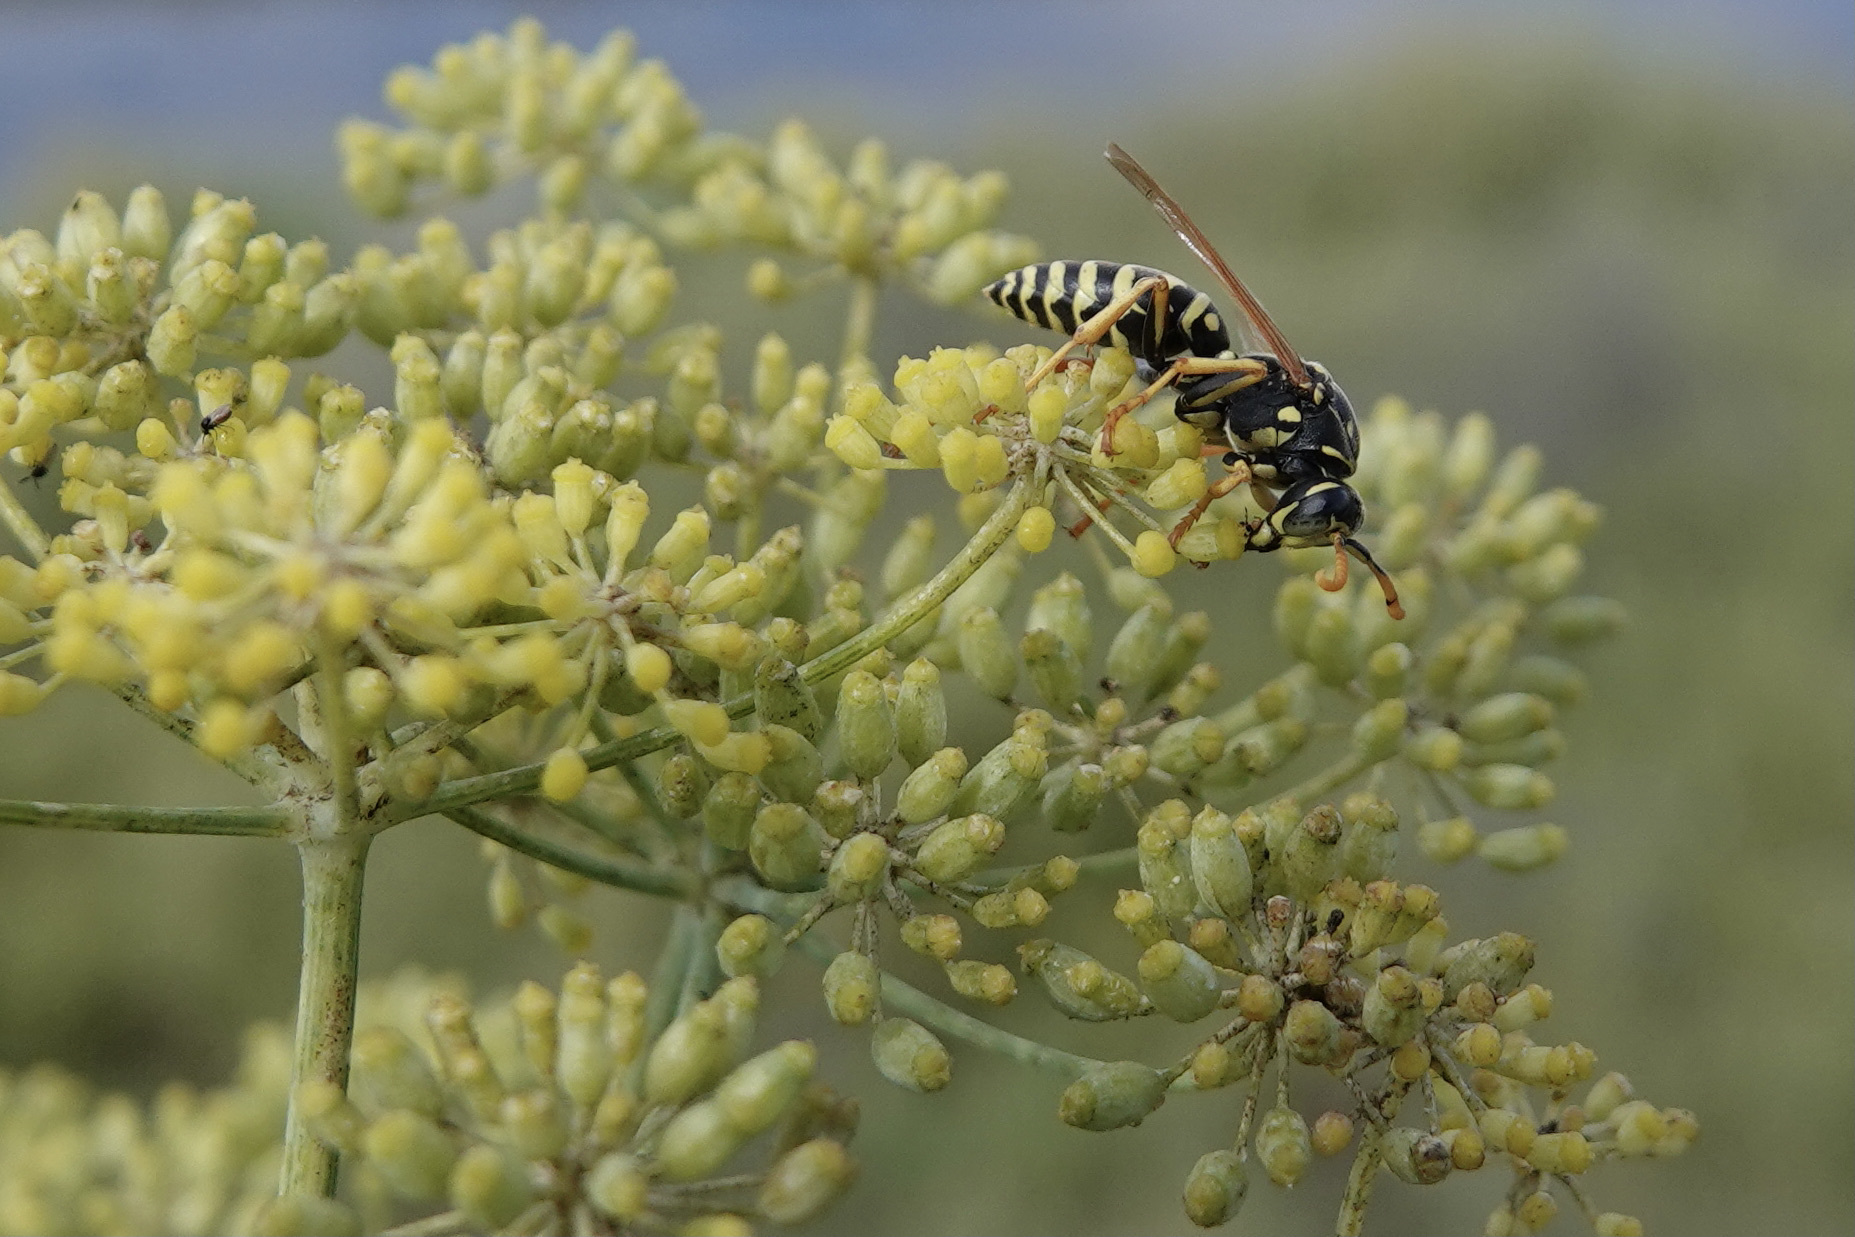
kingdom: Animalia
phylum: Arthropoda
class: Insecta
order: Hymenoptera
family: Eumenidae
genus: Polistes
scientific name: Polistes dominula
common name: Paper wasp
